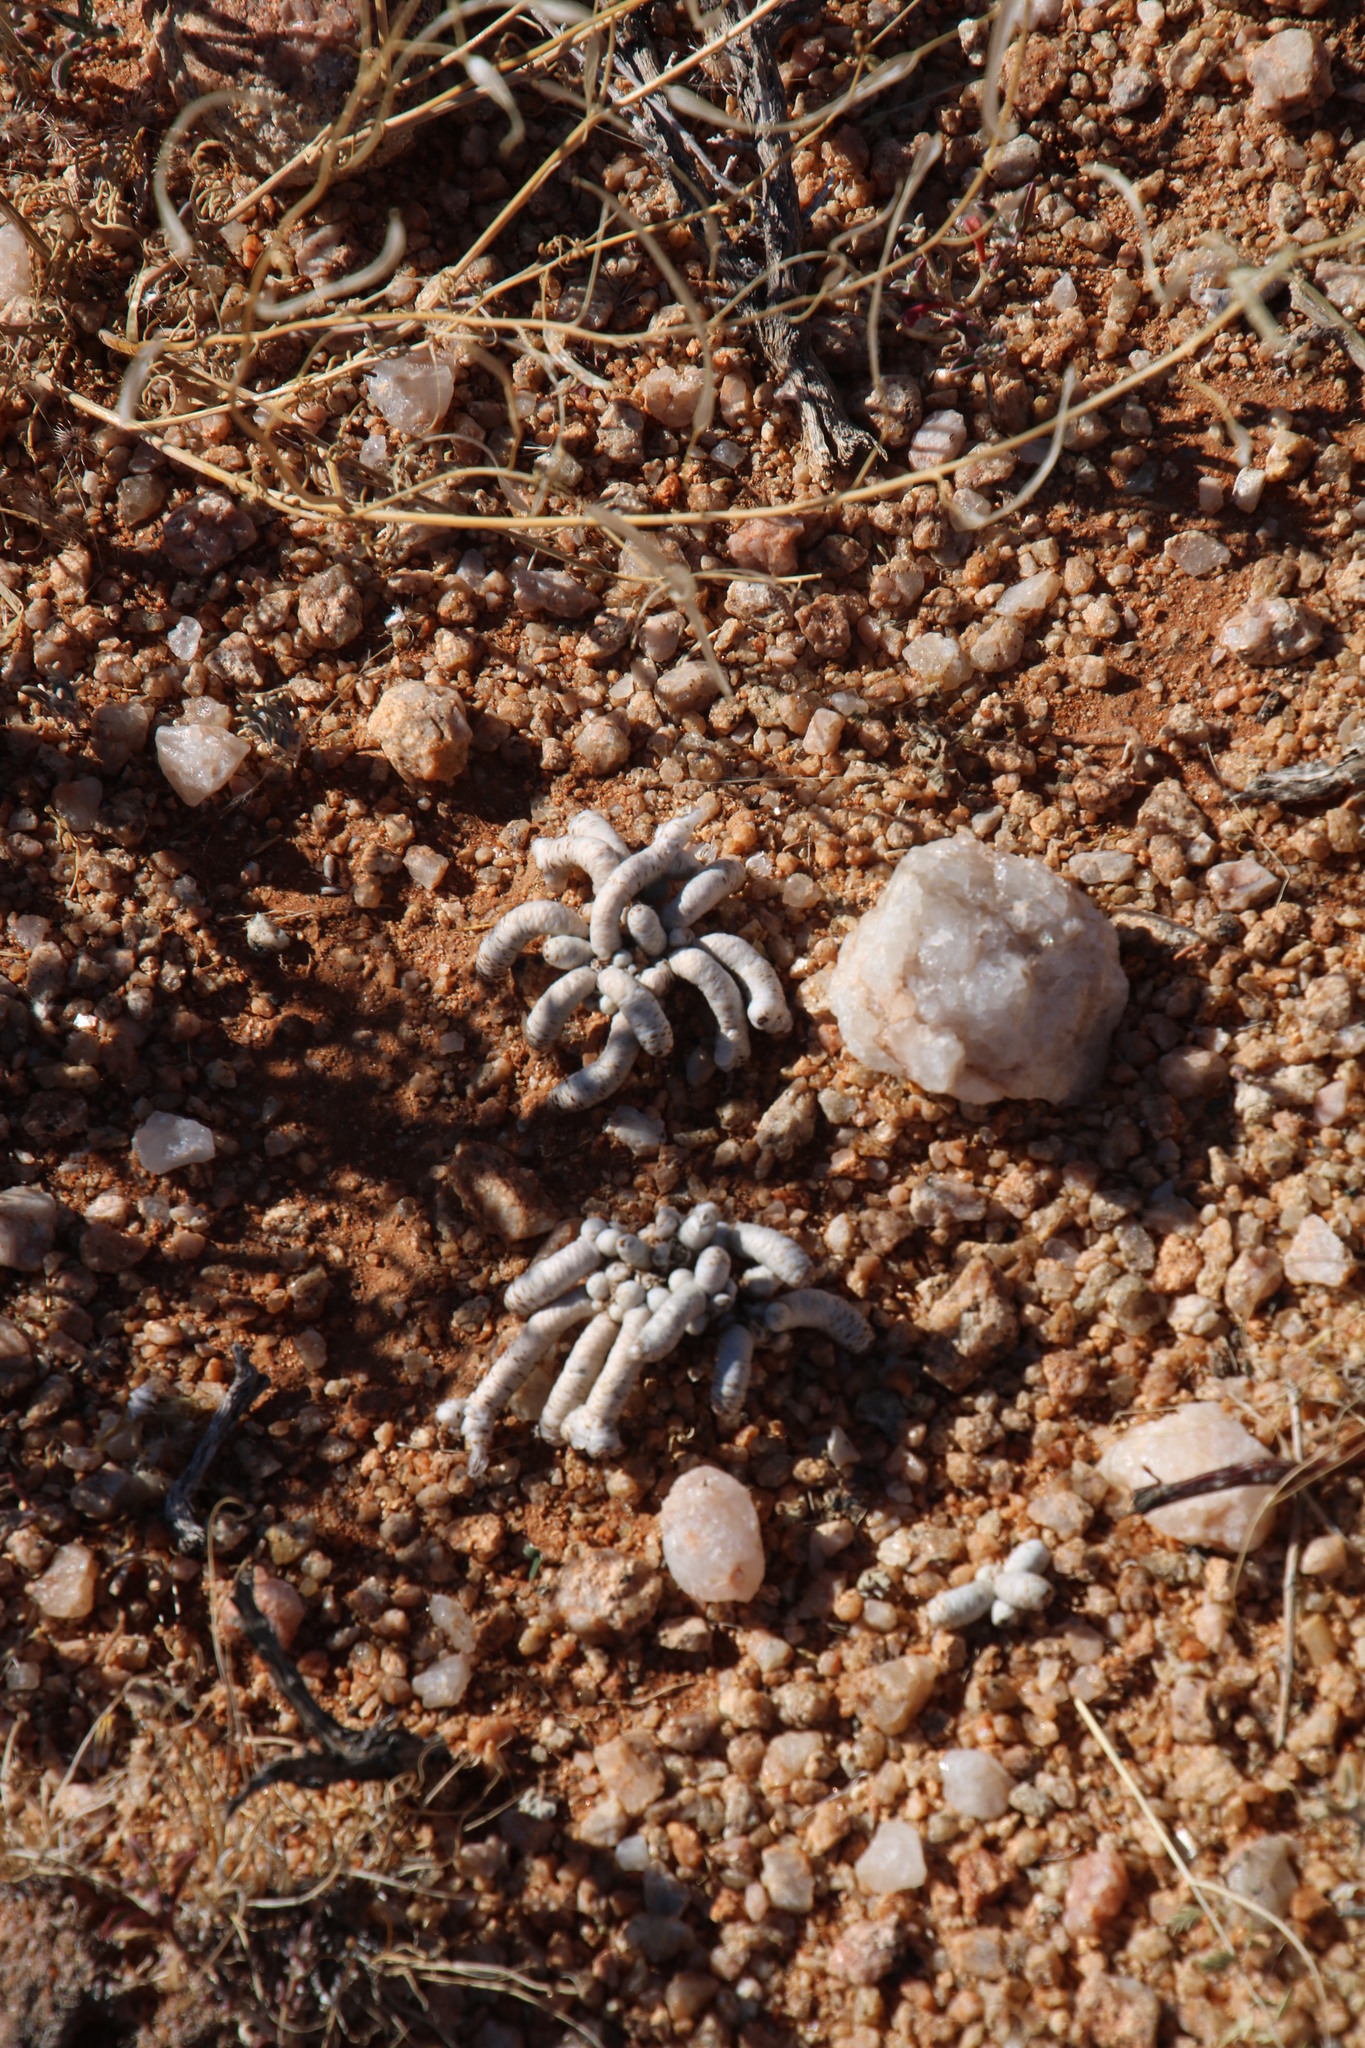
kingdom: Plantae
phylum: Tracheophyta
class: Magnoliopsida
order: Caryophyllales
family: Anacampserotaceae
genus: Avonia
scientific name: Avonia albissima
